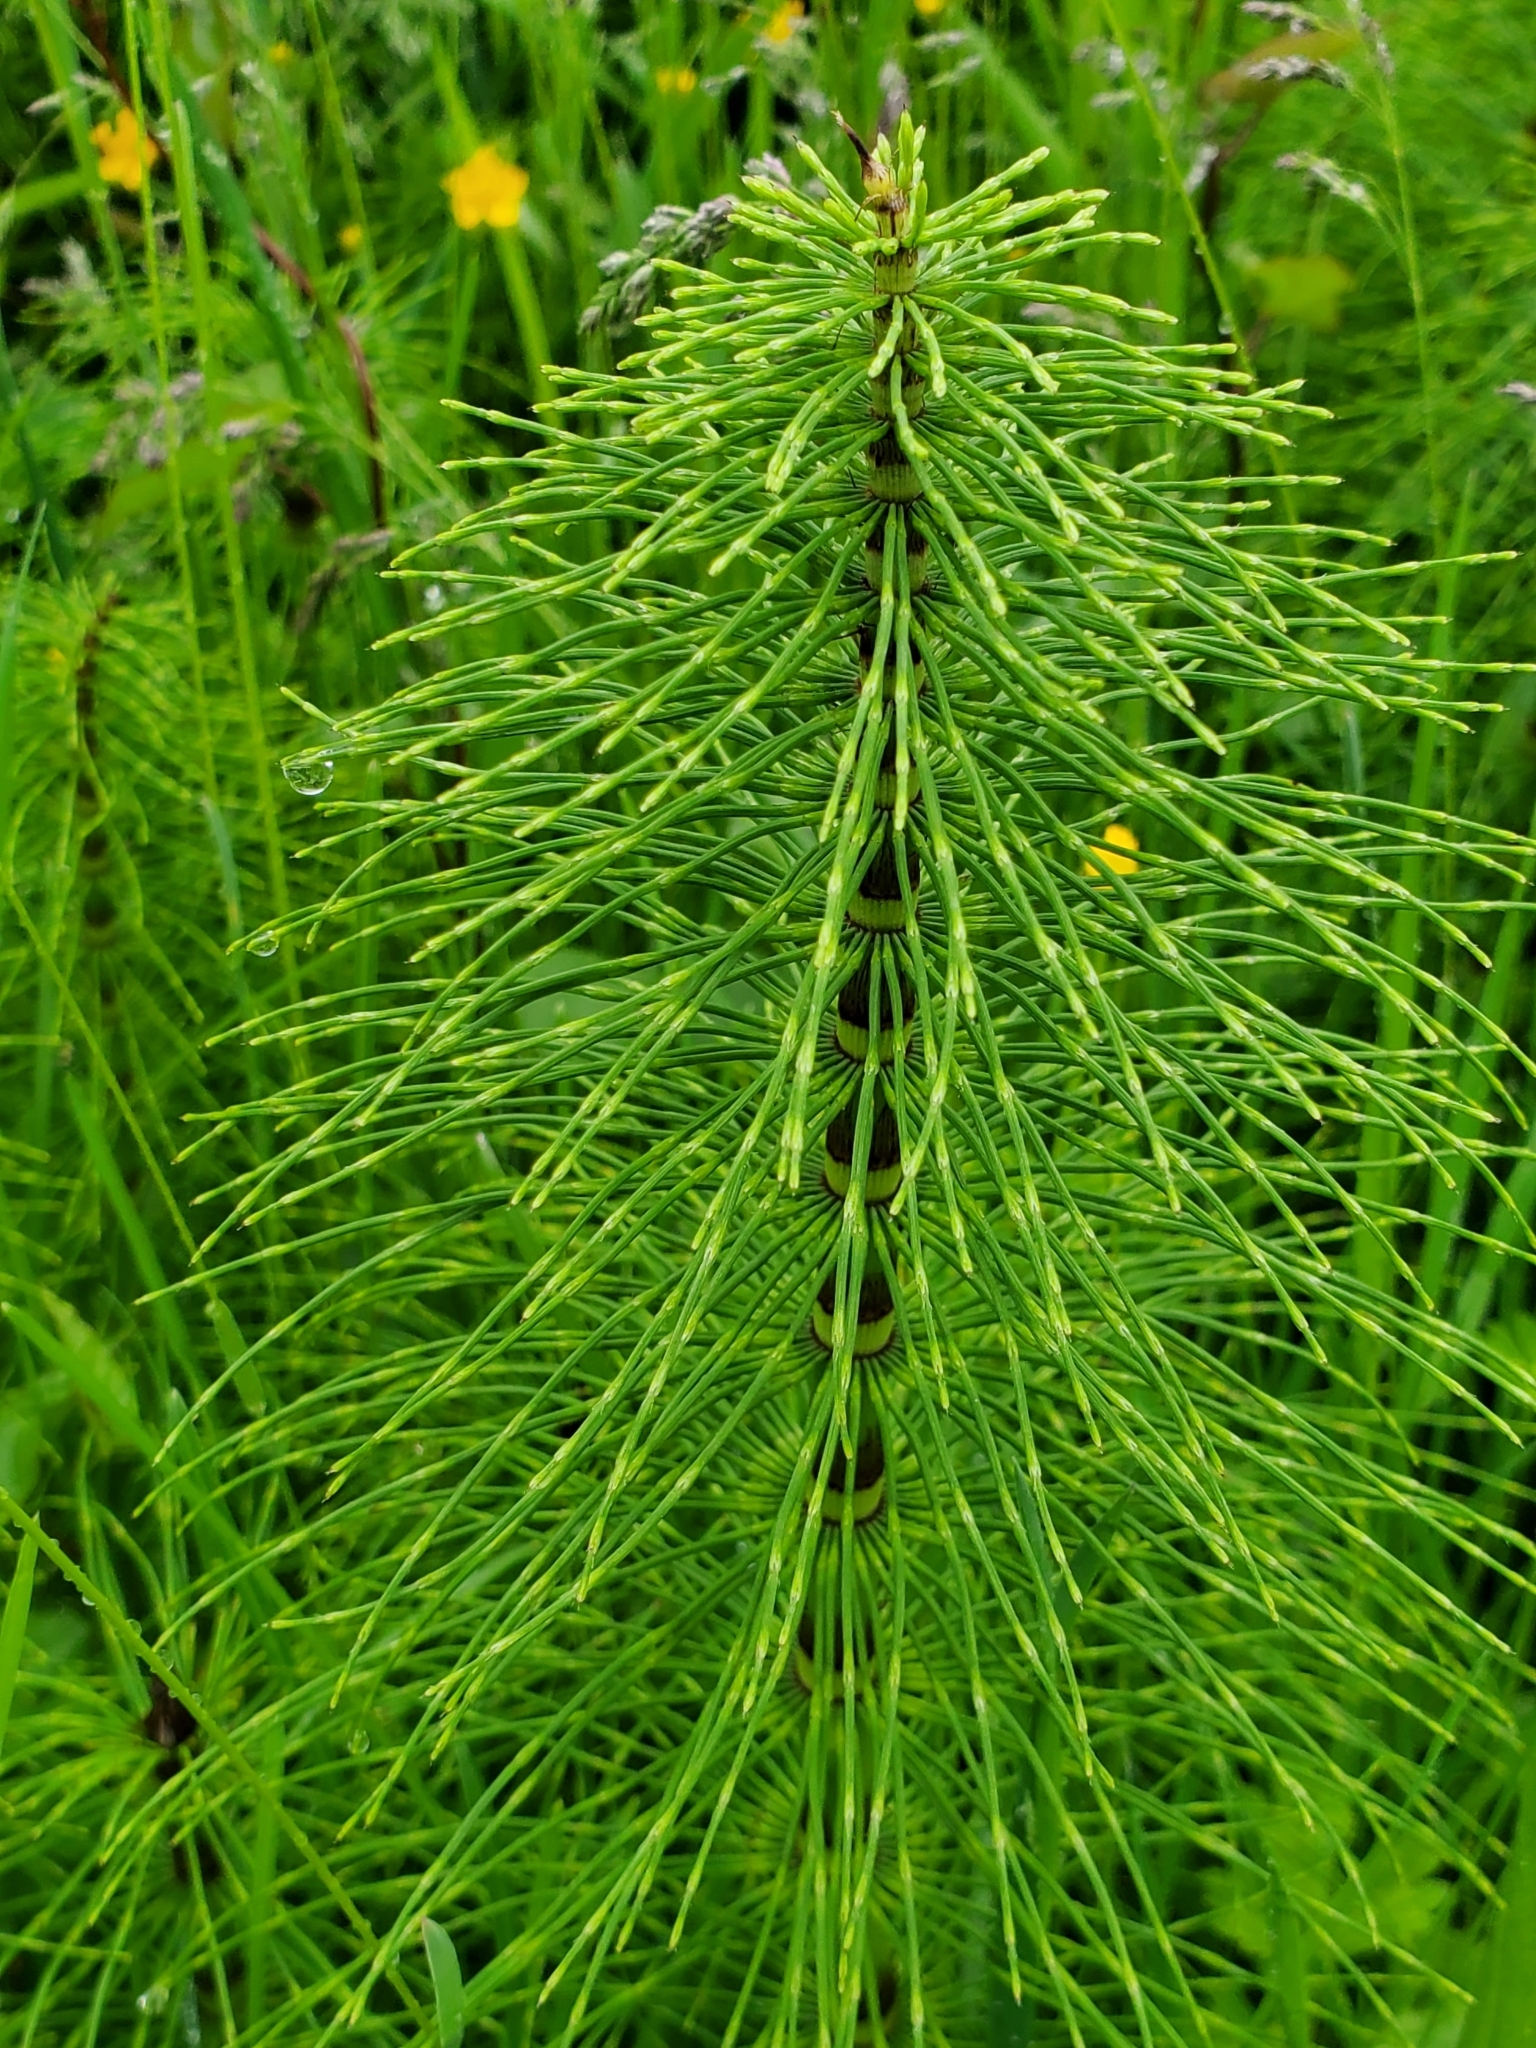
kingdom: Plantae
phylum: Tracheophyta
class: Polypodiopsida
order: Equisetales
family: Equisetaceae
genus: Equisetum
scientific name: Equisetum telmateia
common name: Great horsetail
